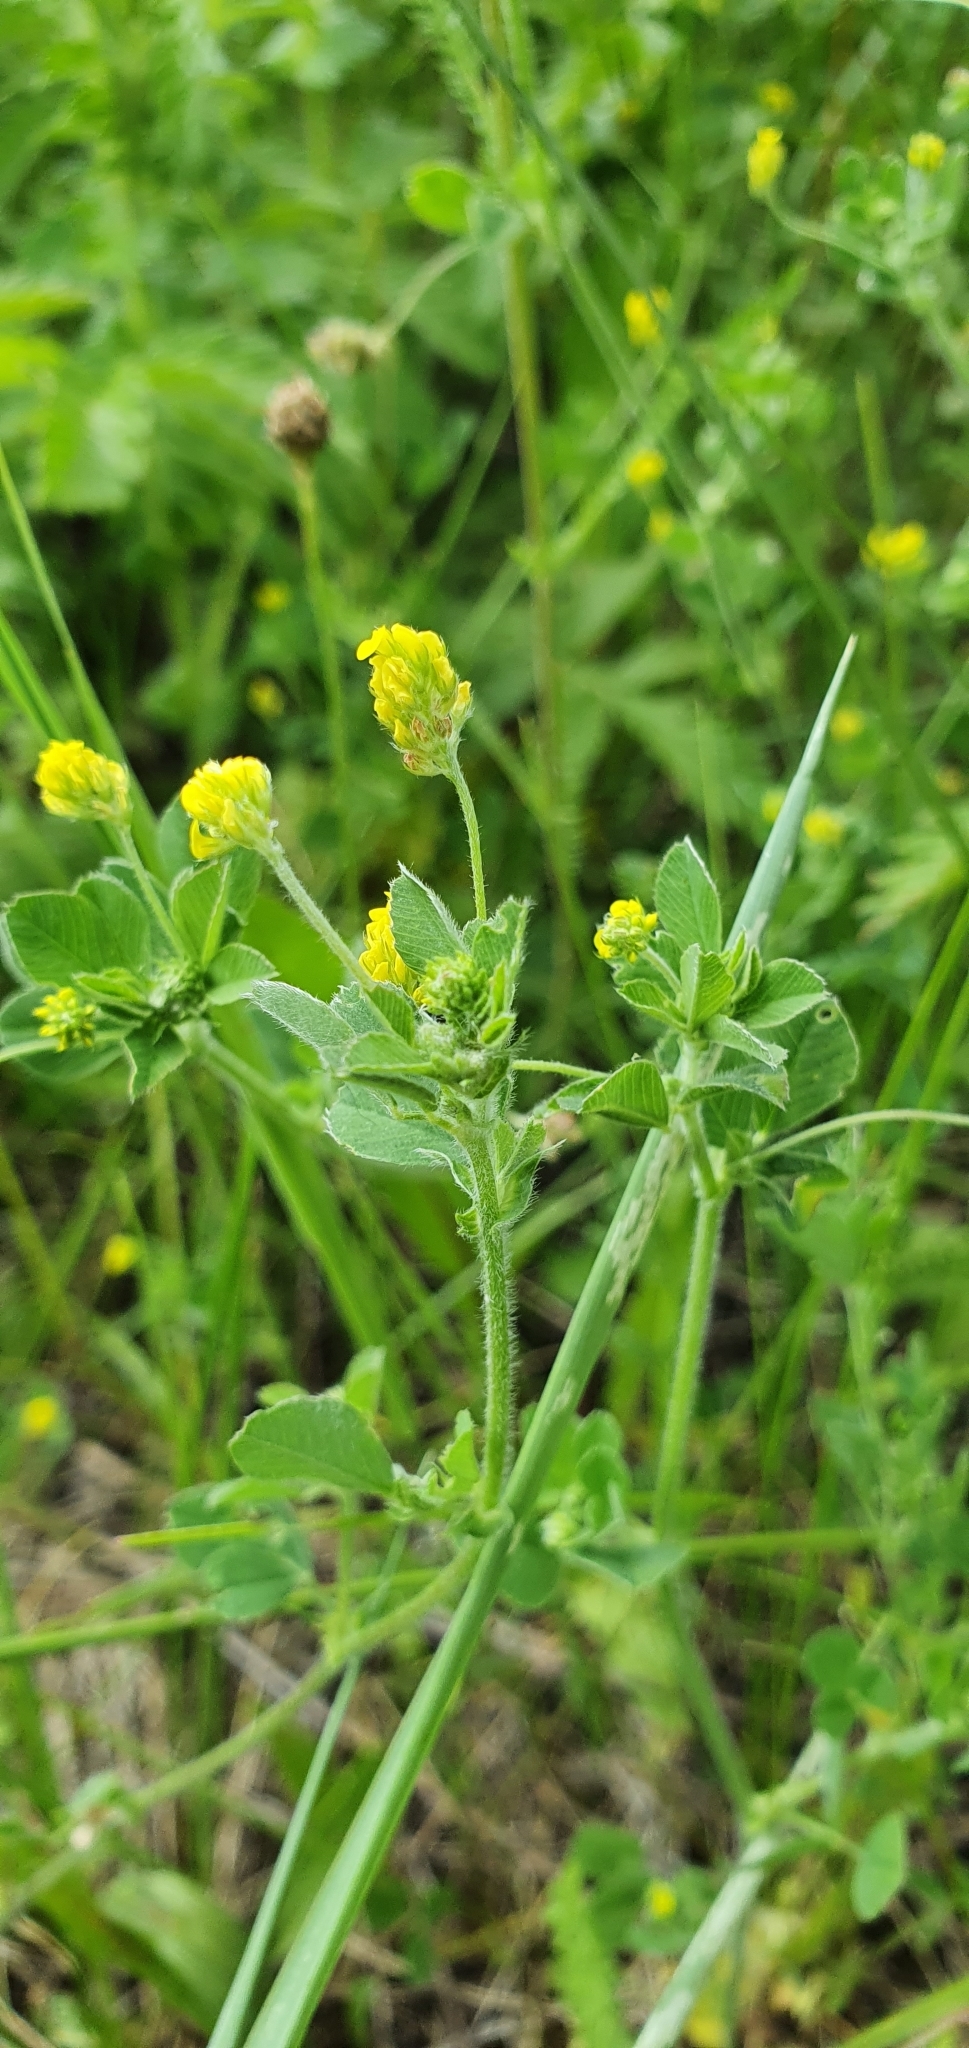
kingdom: Plantae
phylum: Tracheophyta
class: Magnoliopsida
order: Fabales
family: Fabaceae
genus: Medicago
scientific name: Medicago lupulina
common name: Black medick
